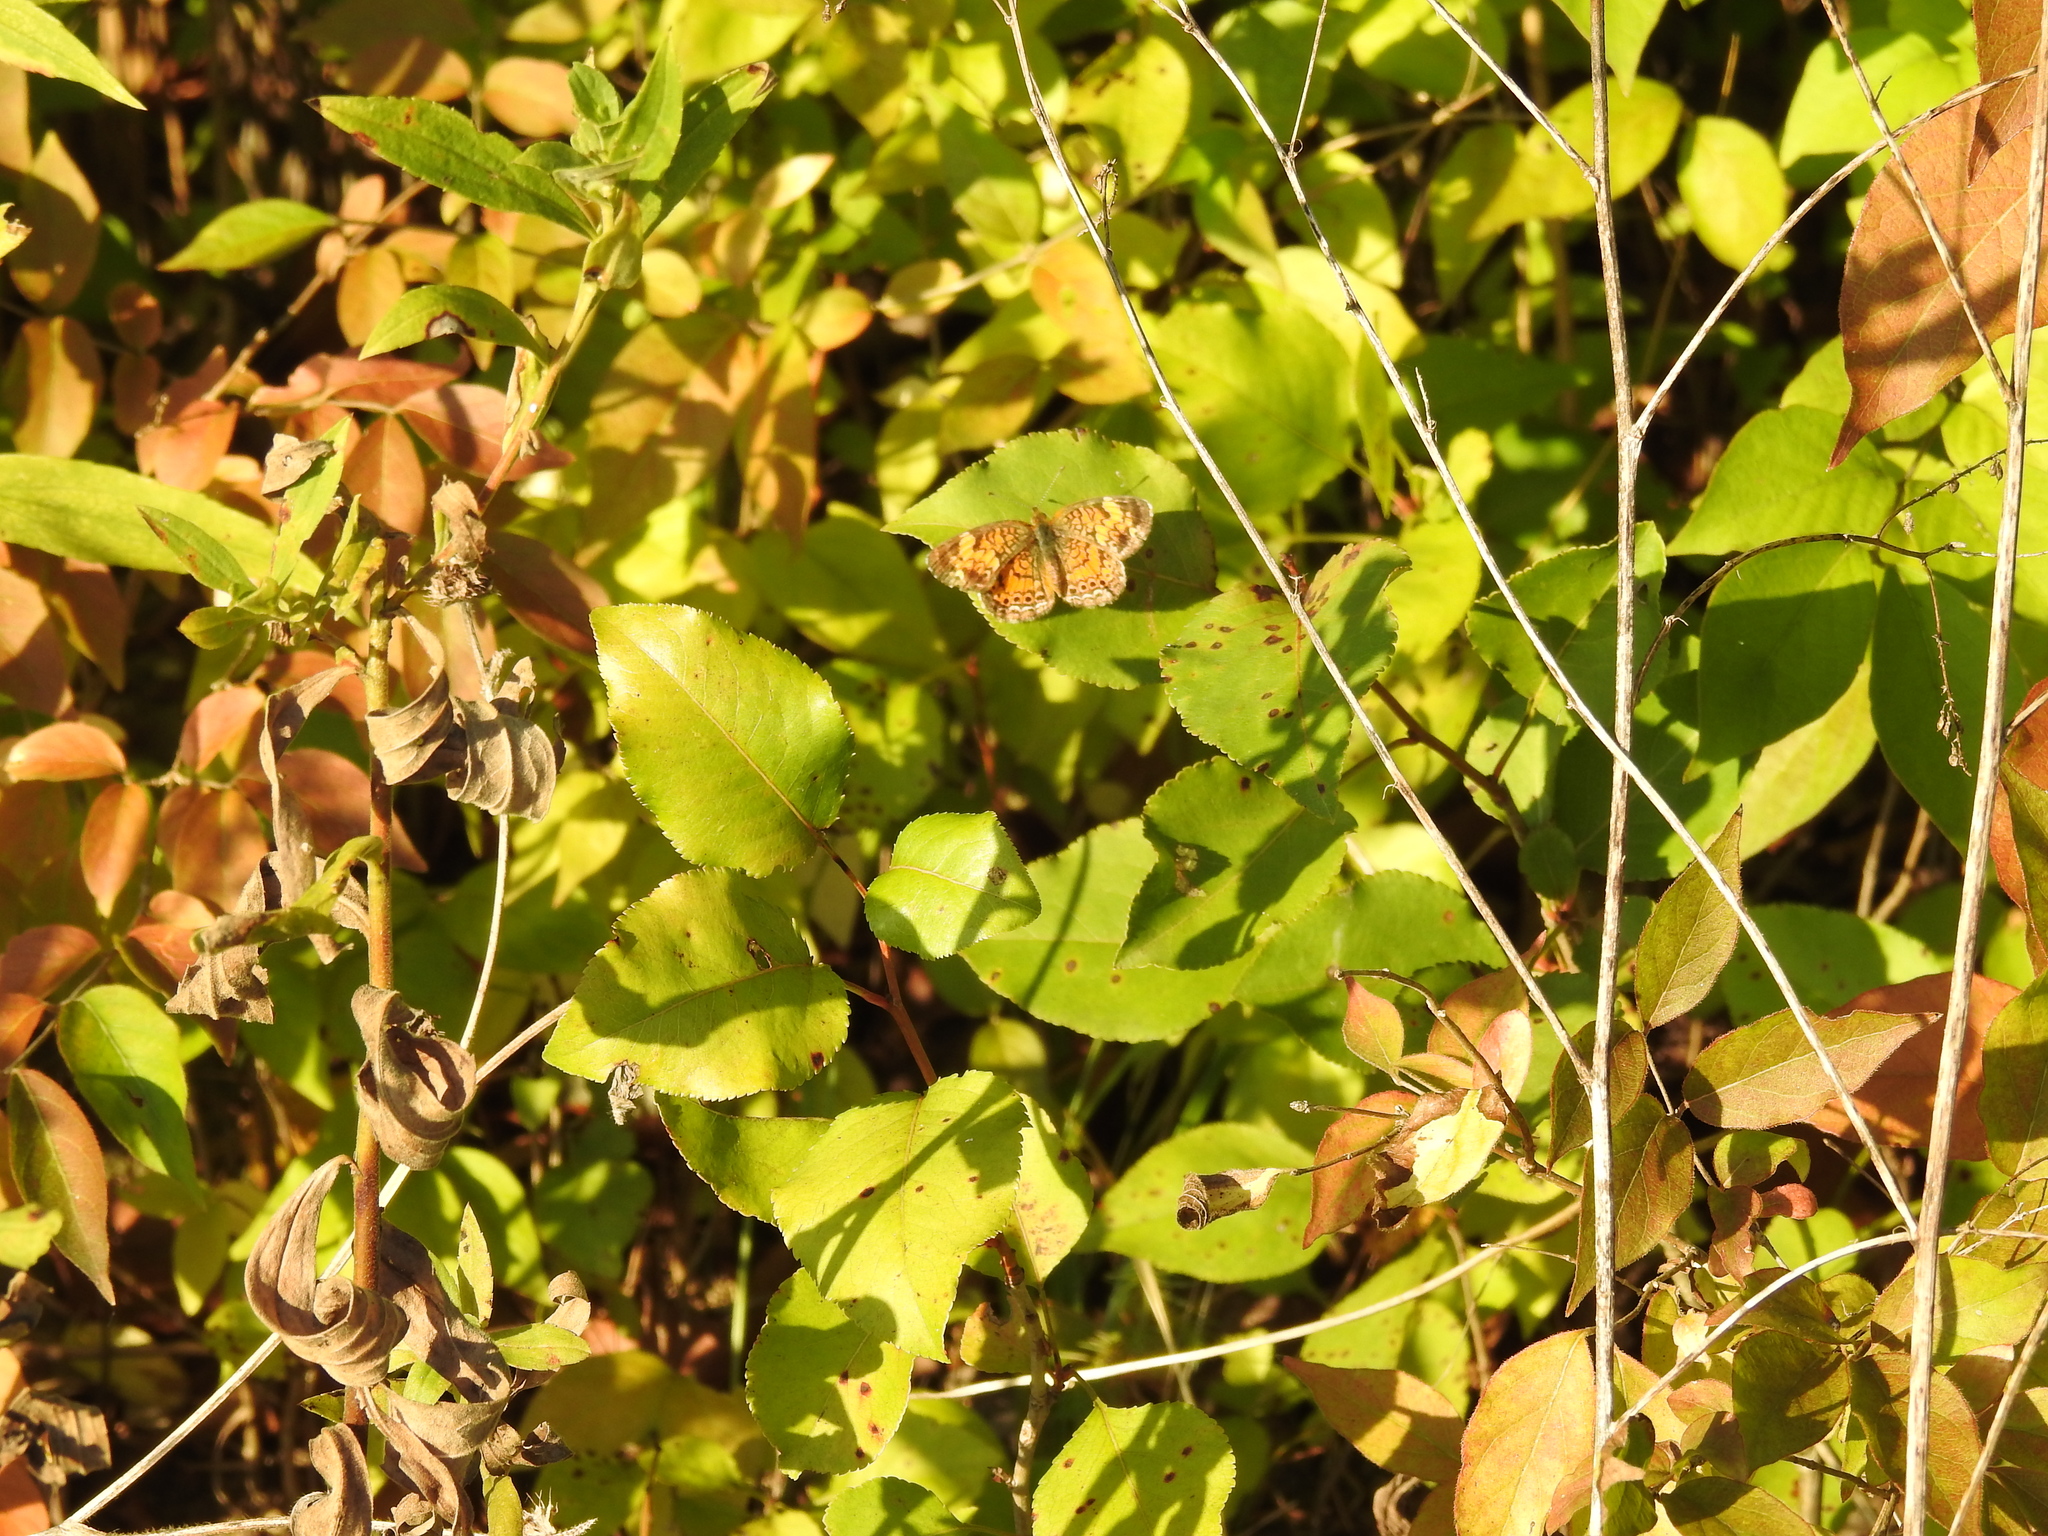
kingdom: Animalia
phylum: Arthropoda
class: Insecta
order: Lepidoptera
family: Nymphalidae
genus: Phyciodes
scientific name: Phyciodes tharos
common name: Pearl crescent
